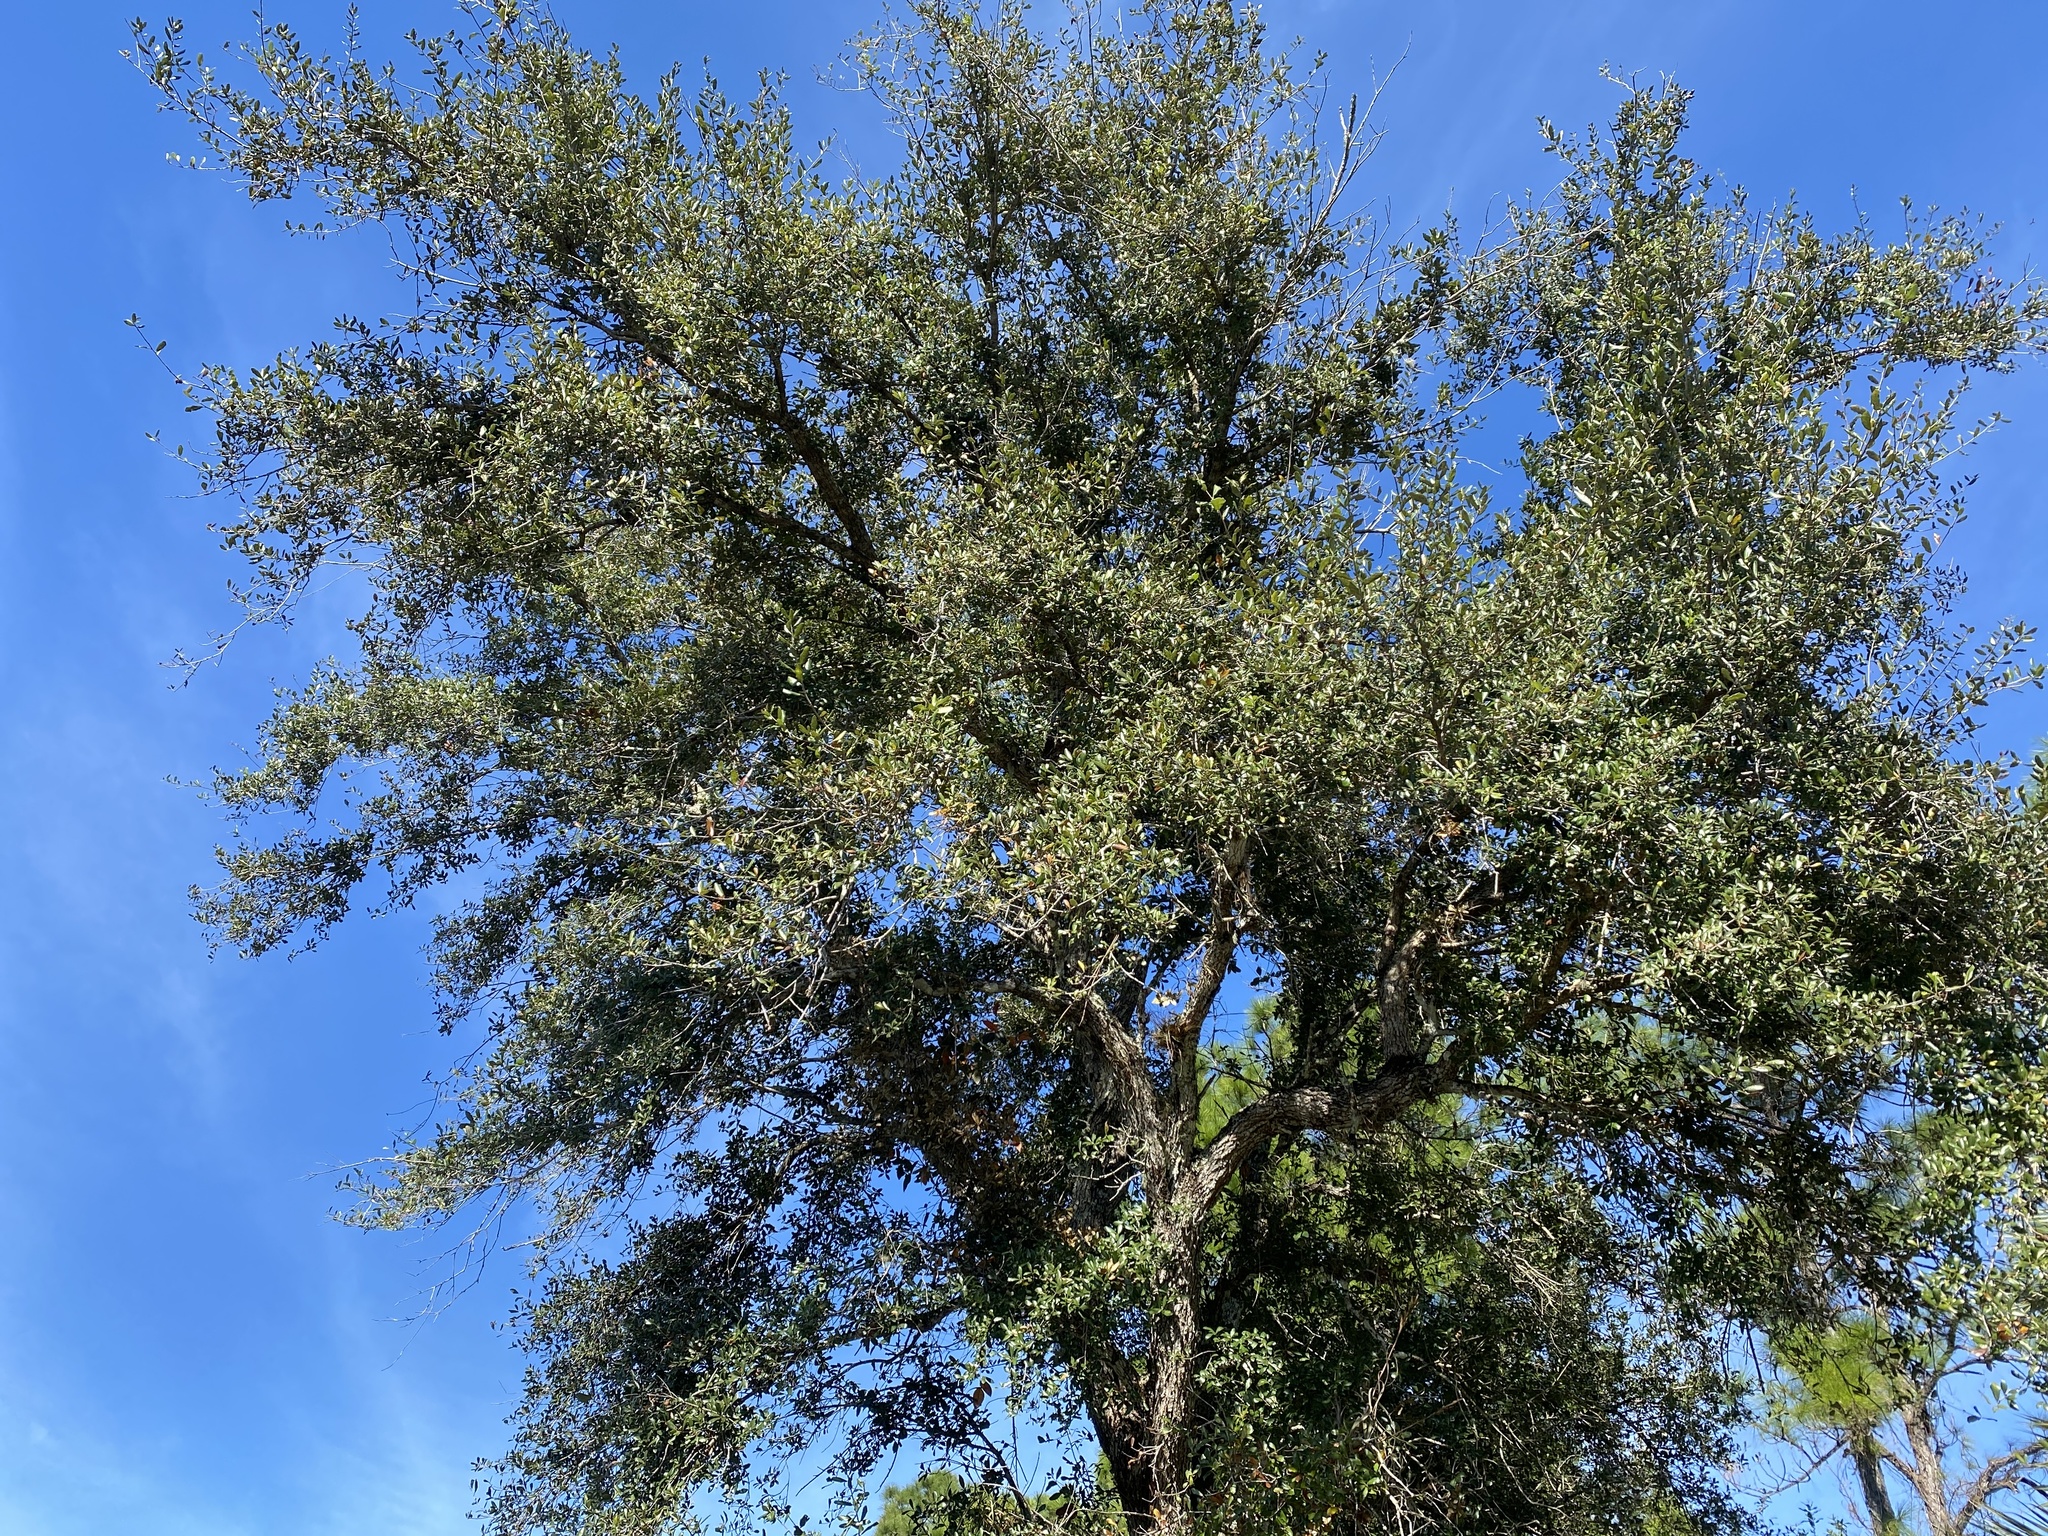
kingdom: Plantae
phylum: Tracheophyta
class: Magnoliopsida
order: Fagales
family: Fagaceae
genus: Quercus
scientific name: Quercus virginiana
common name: Southern live oak
